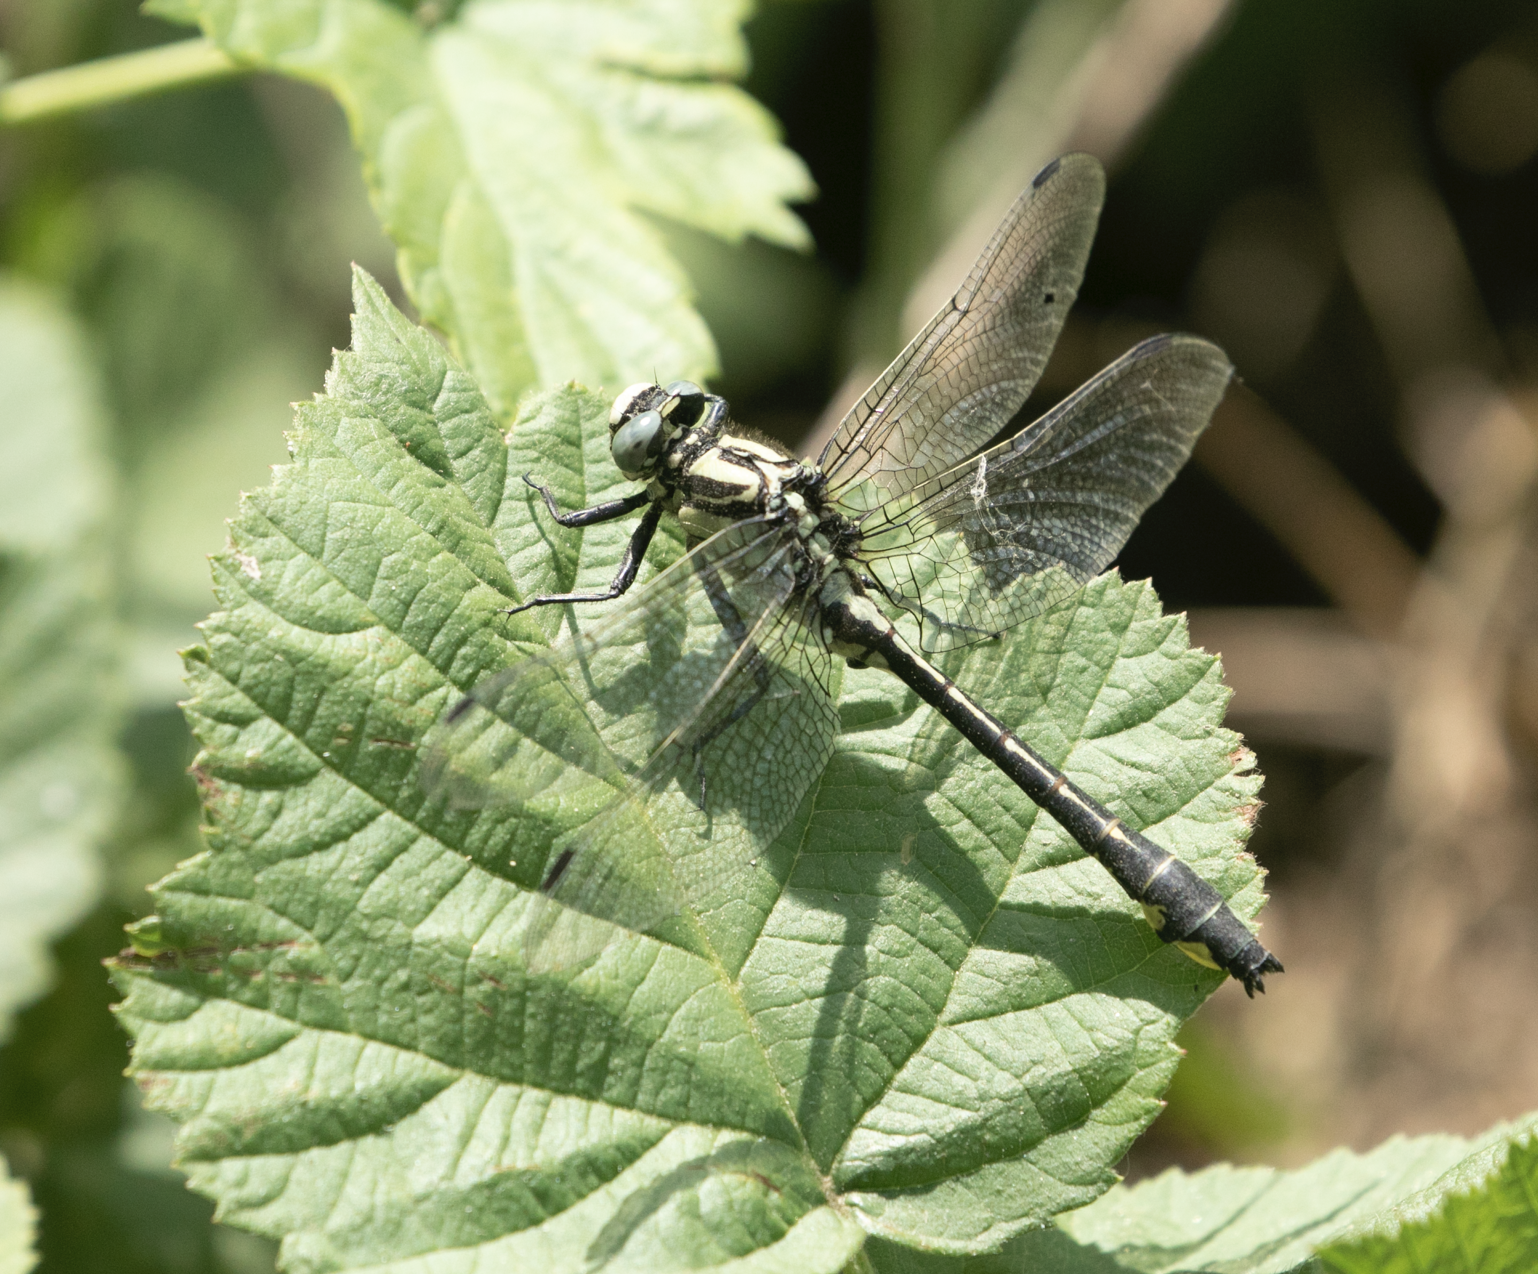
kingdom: Animalia
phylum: Arthropoda
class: Insecta
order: Odonata
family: Gomphidae
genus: Gomphus
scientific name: Gomphus vulgatissimus
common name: Club-tailed dragonfly
